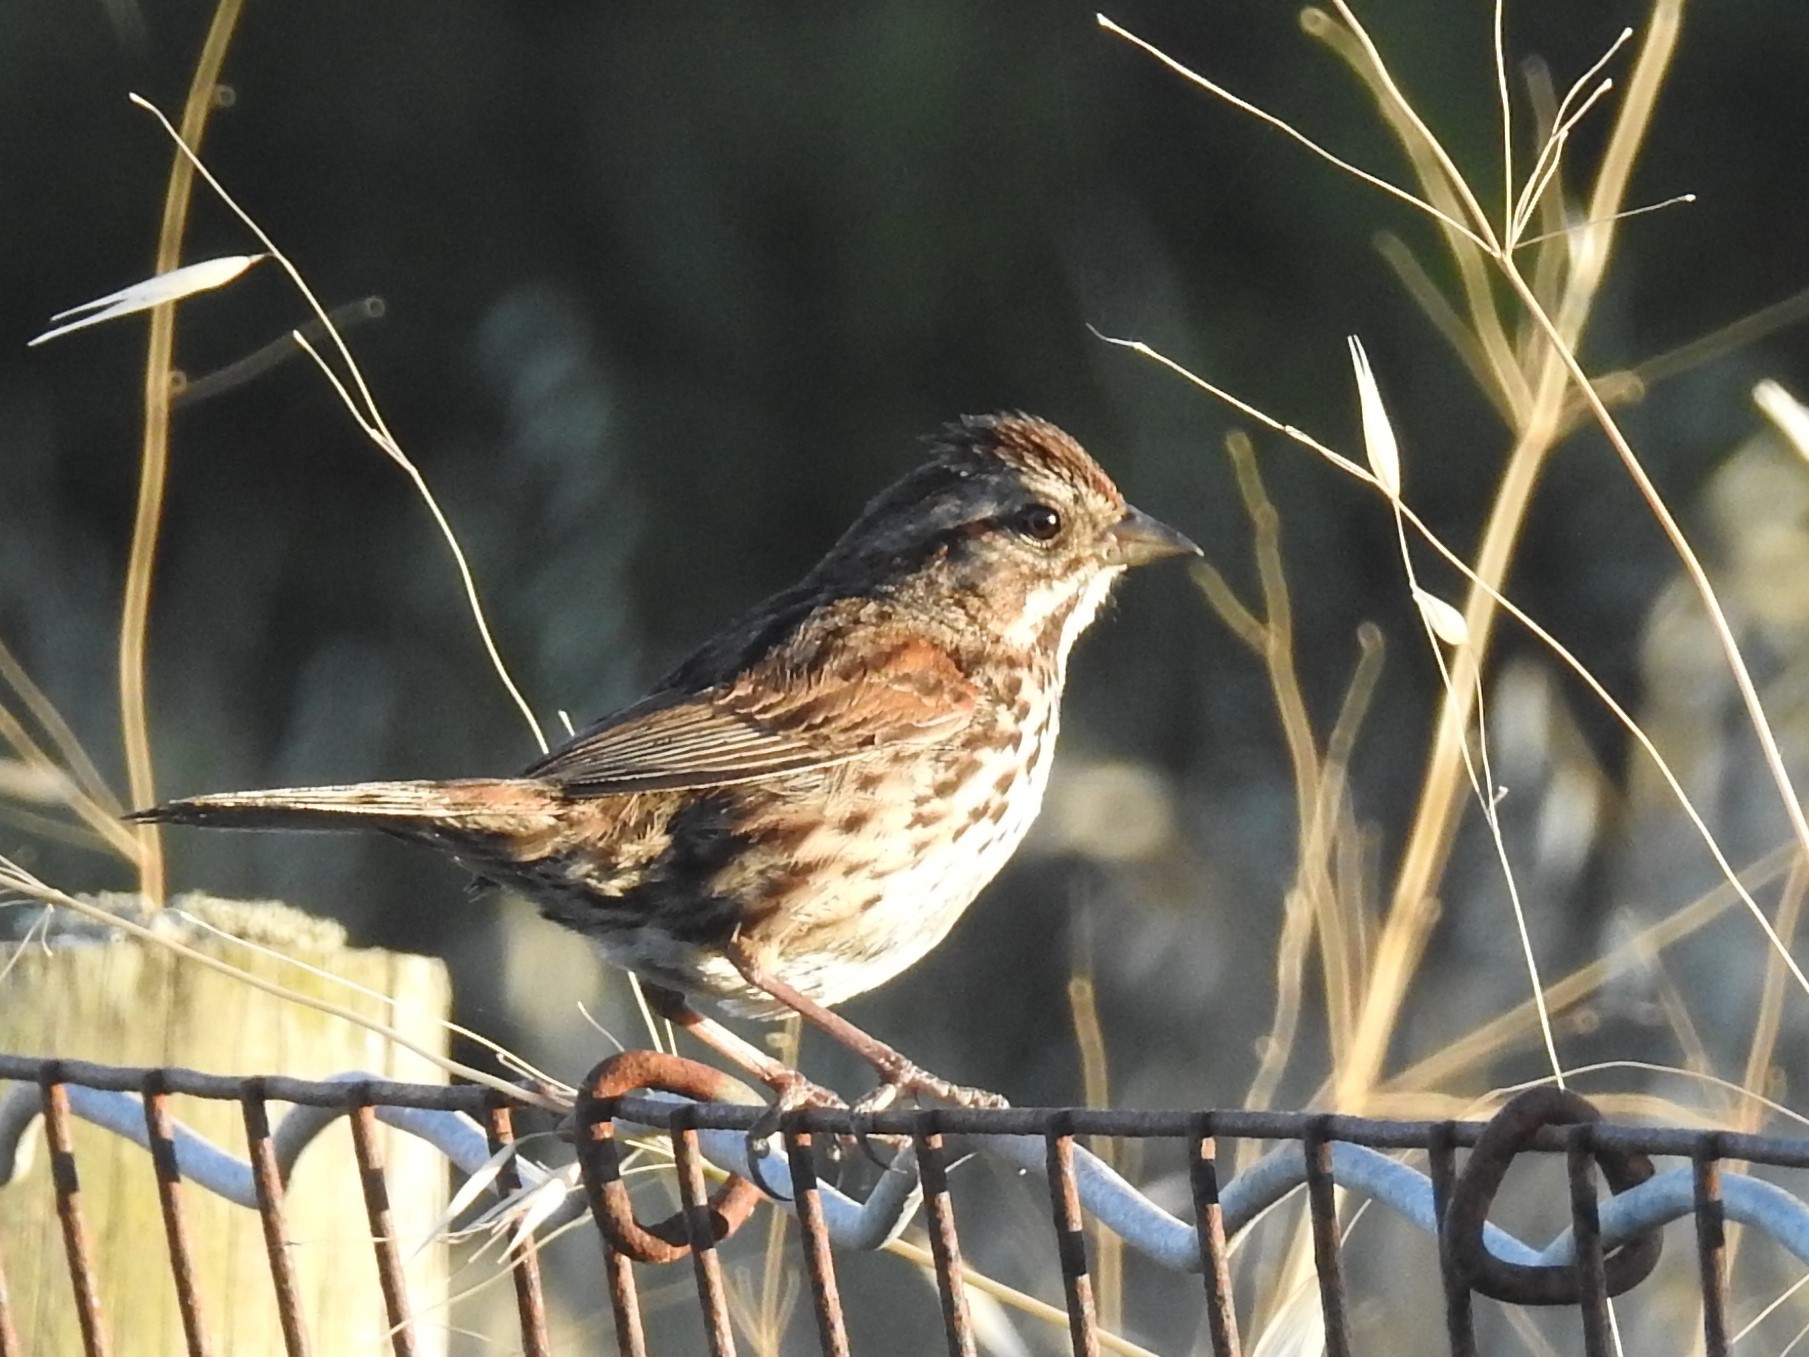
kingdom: Animalia
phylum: Chordata
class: Aves
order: Passeriformes
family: Passerellidae
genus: Melospiza
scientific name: Melospiza melodia
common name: Song sparrow
